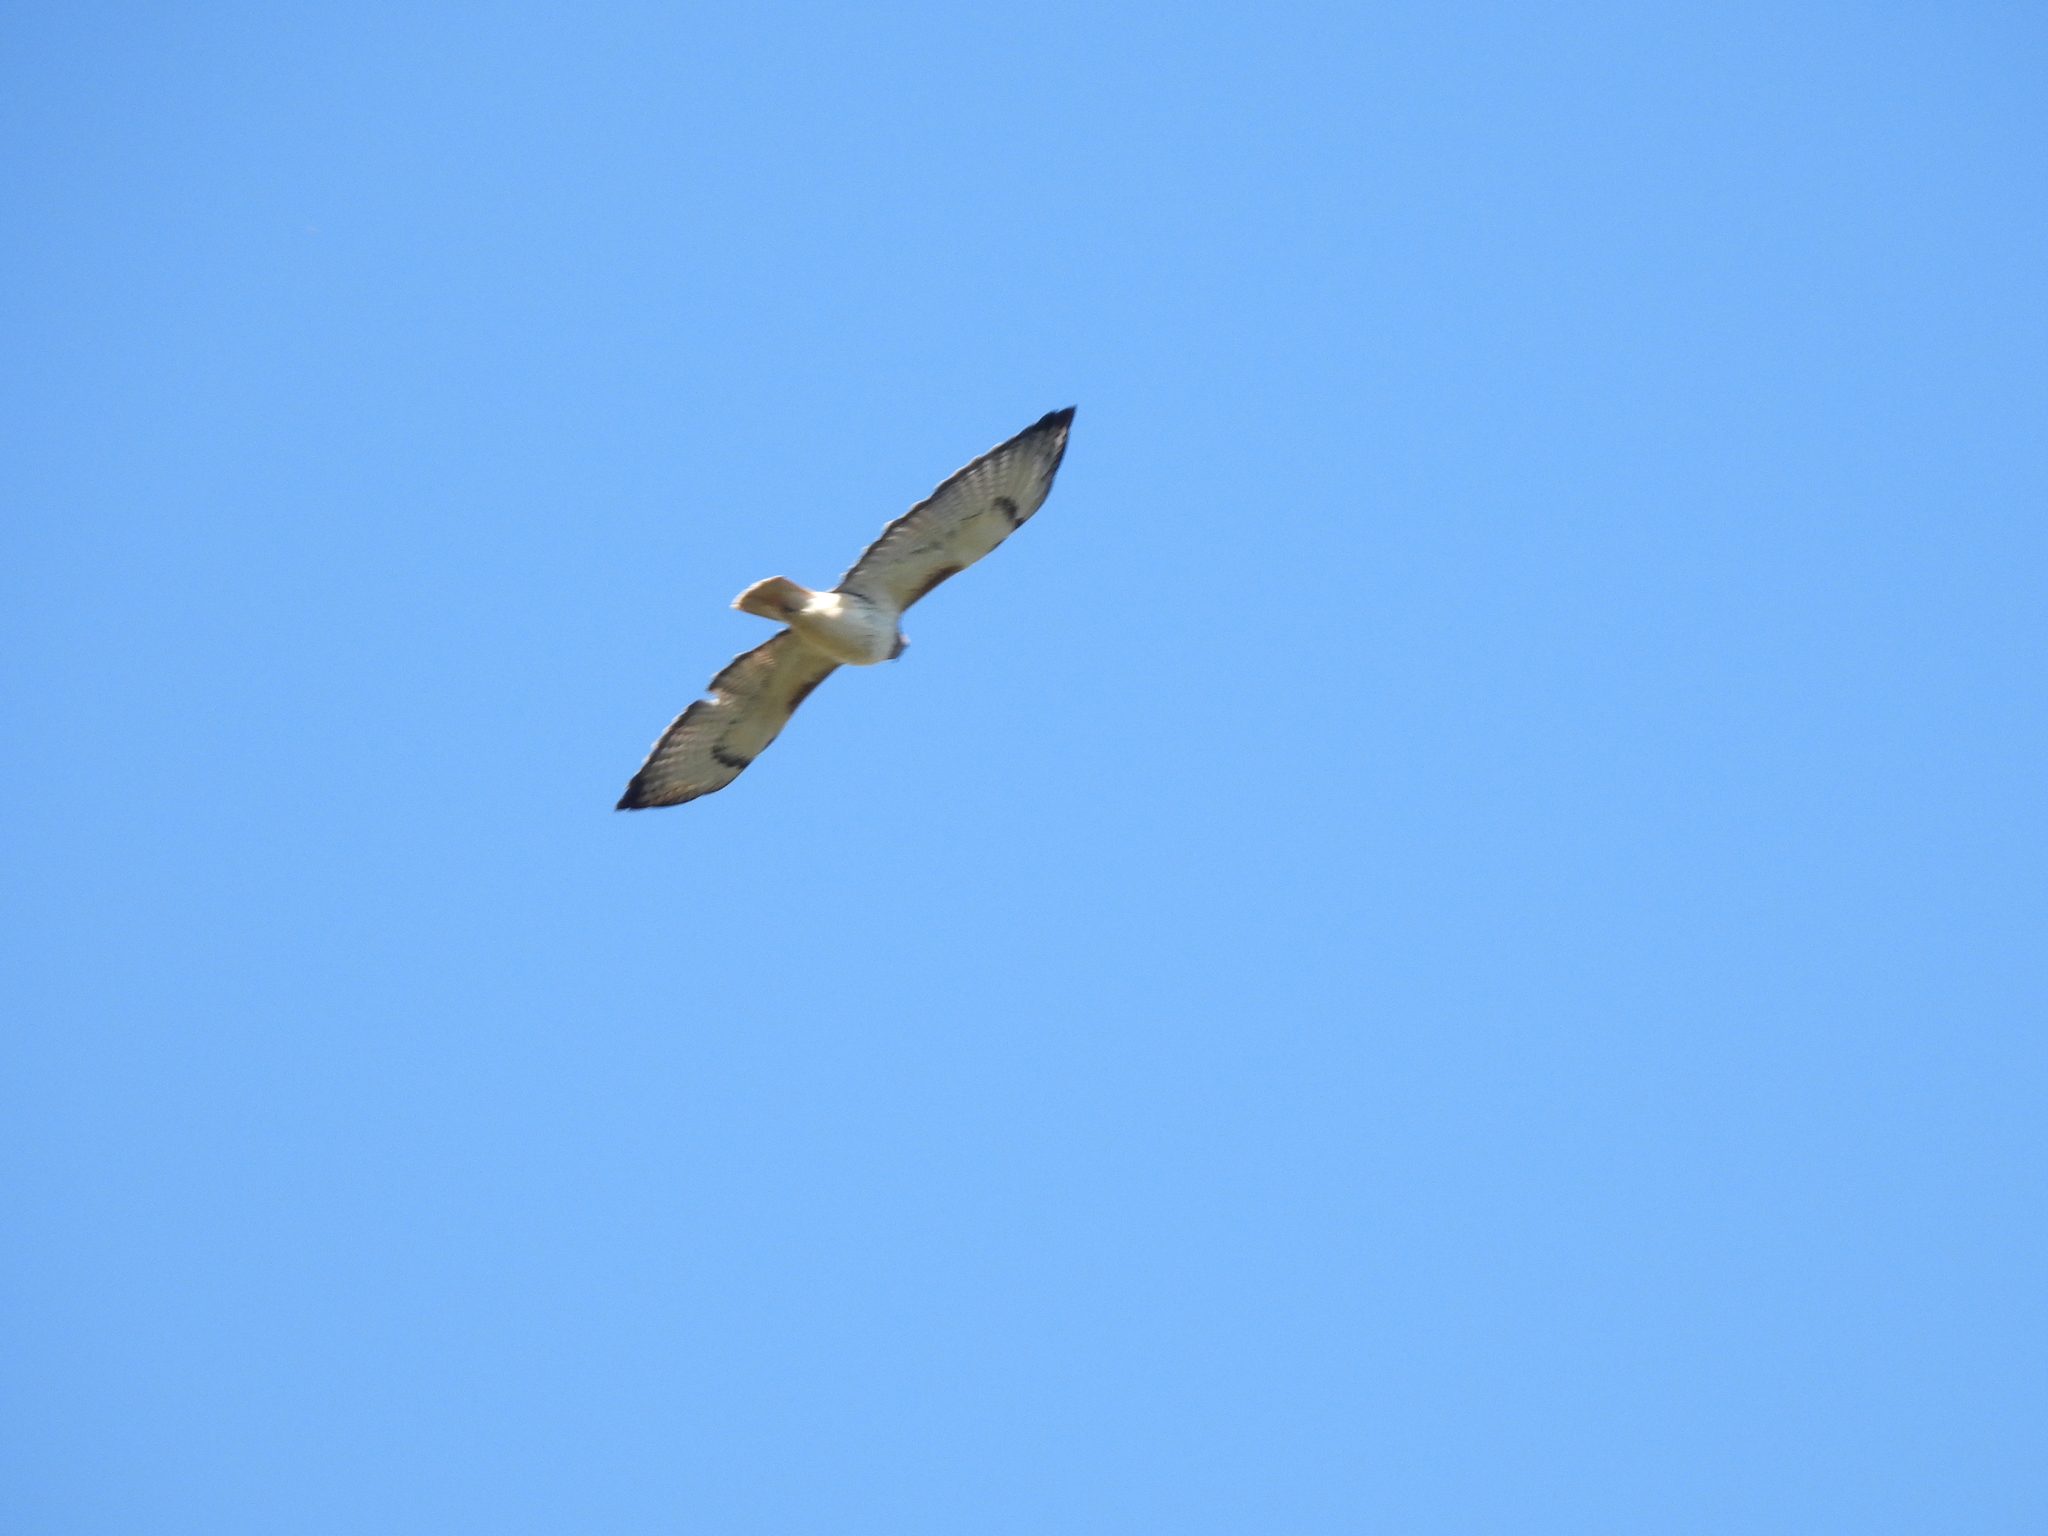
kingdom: Animalia
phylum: Chordata
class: Aves
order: Accipitriformes
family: Accipitridae
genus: Buteo
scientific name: Buteo jamaicensis
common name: Red-tailed hawk
